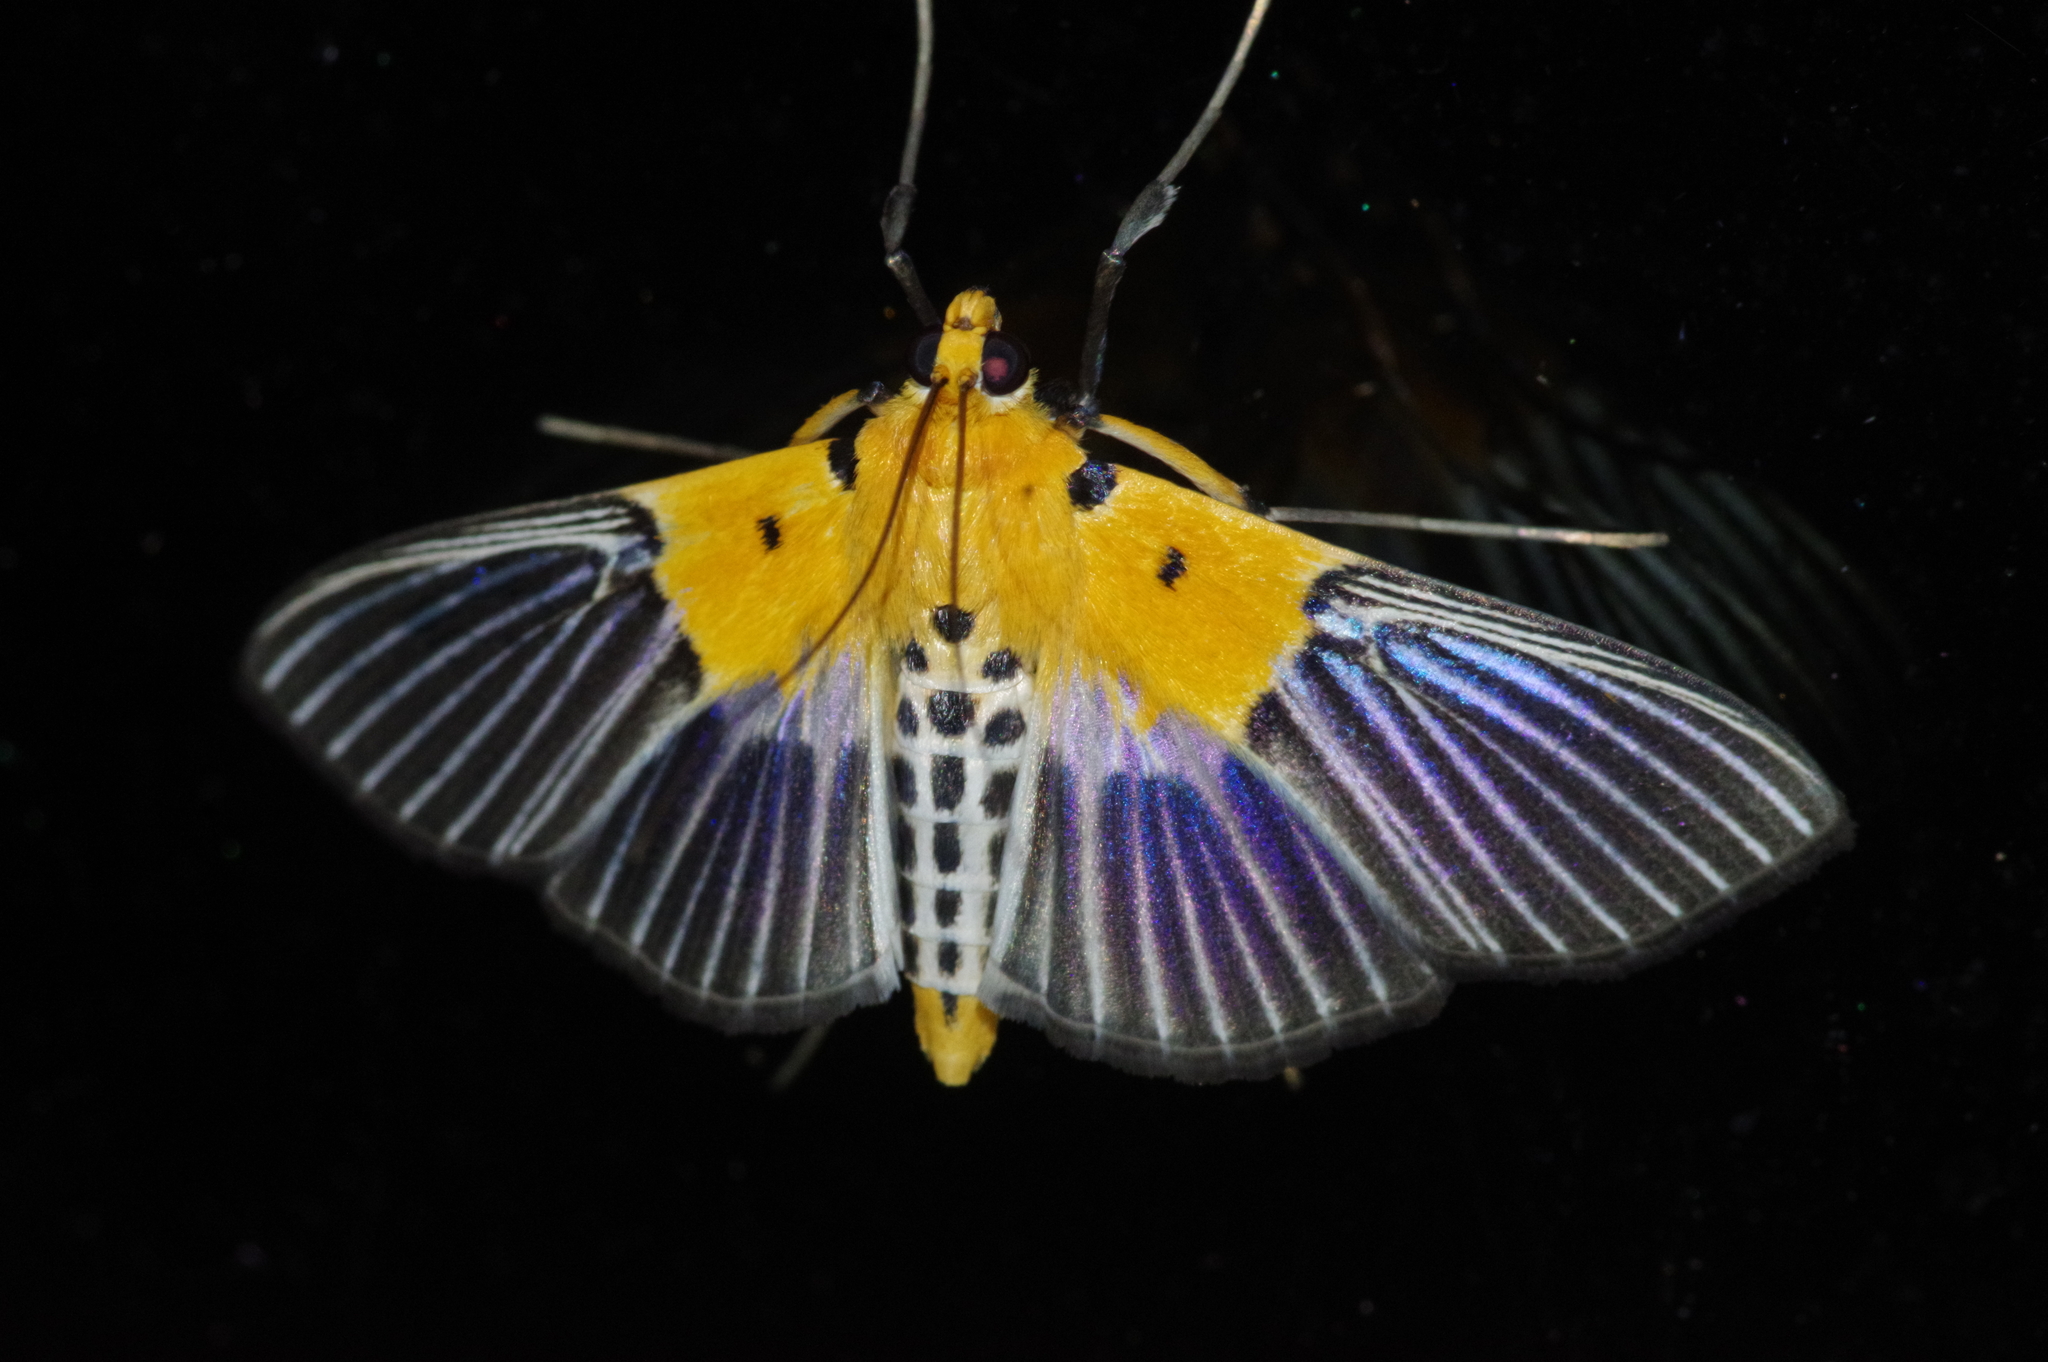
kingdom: Animalia
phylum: Arthropoda
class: Insecta
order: Lepidoptera
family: Crambidae
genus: Nevrina
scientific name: Nevrina procopia
